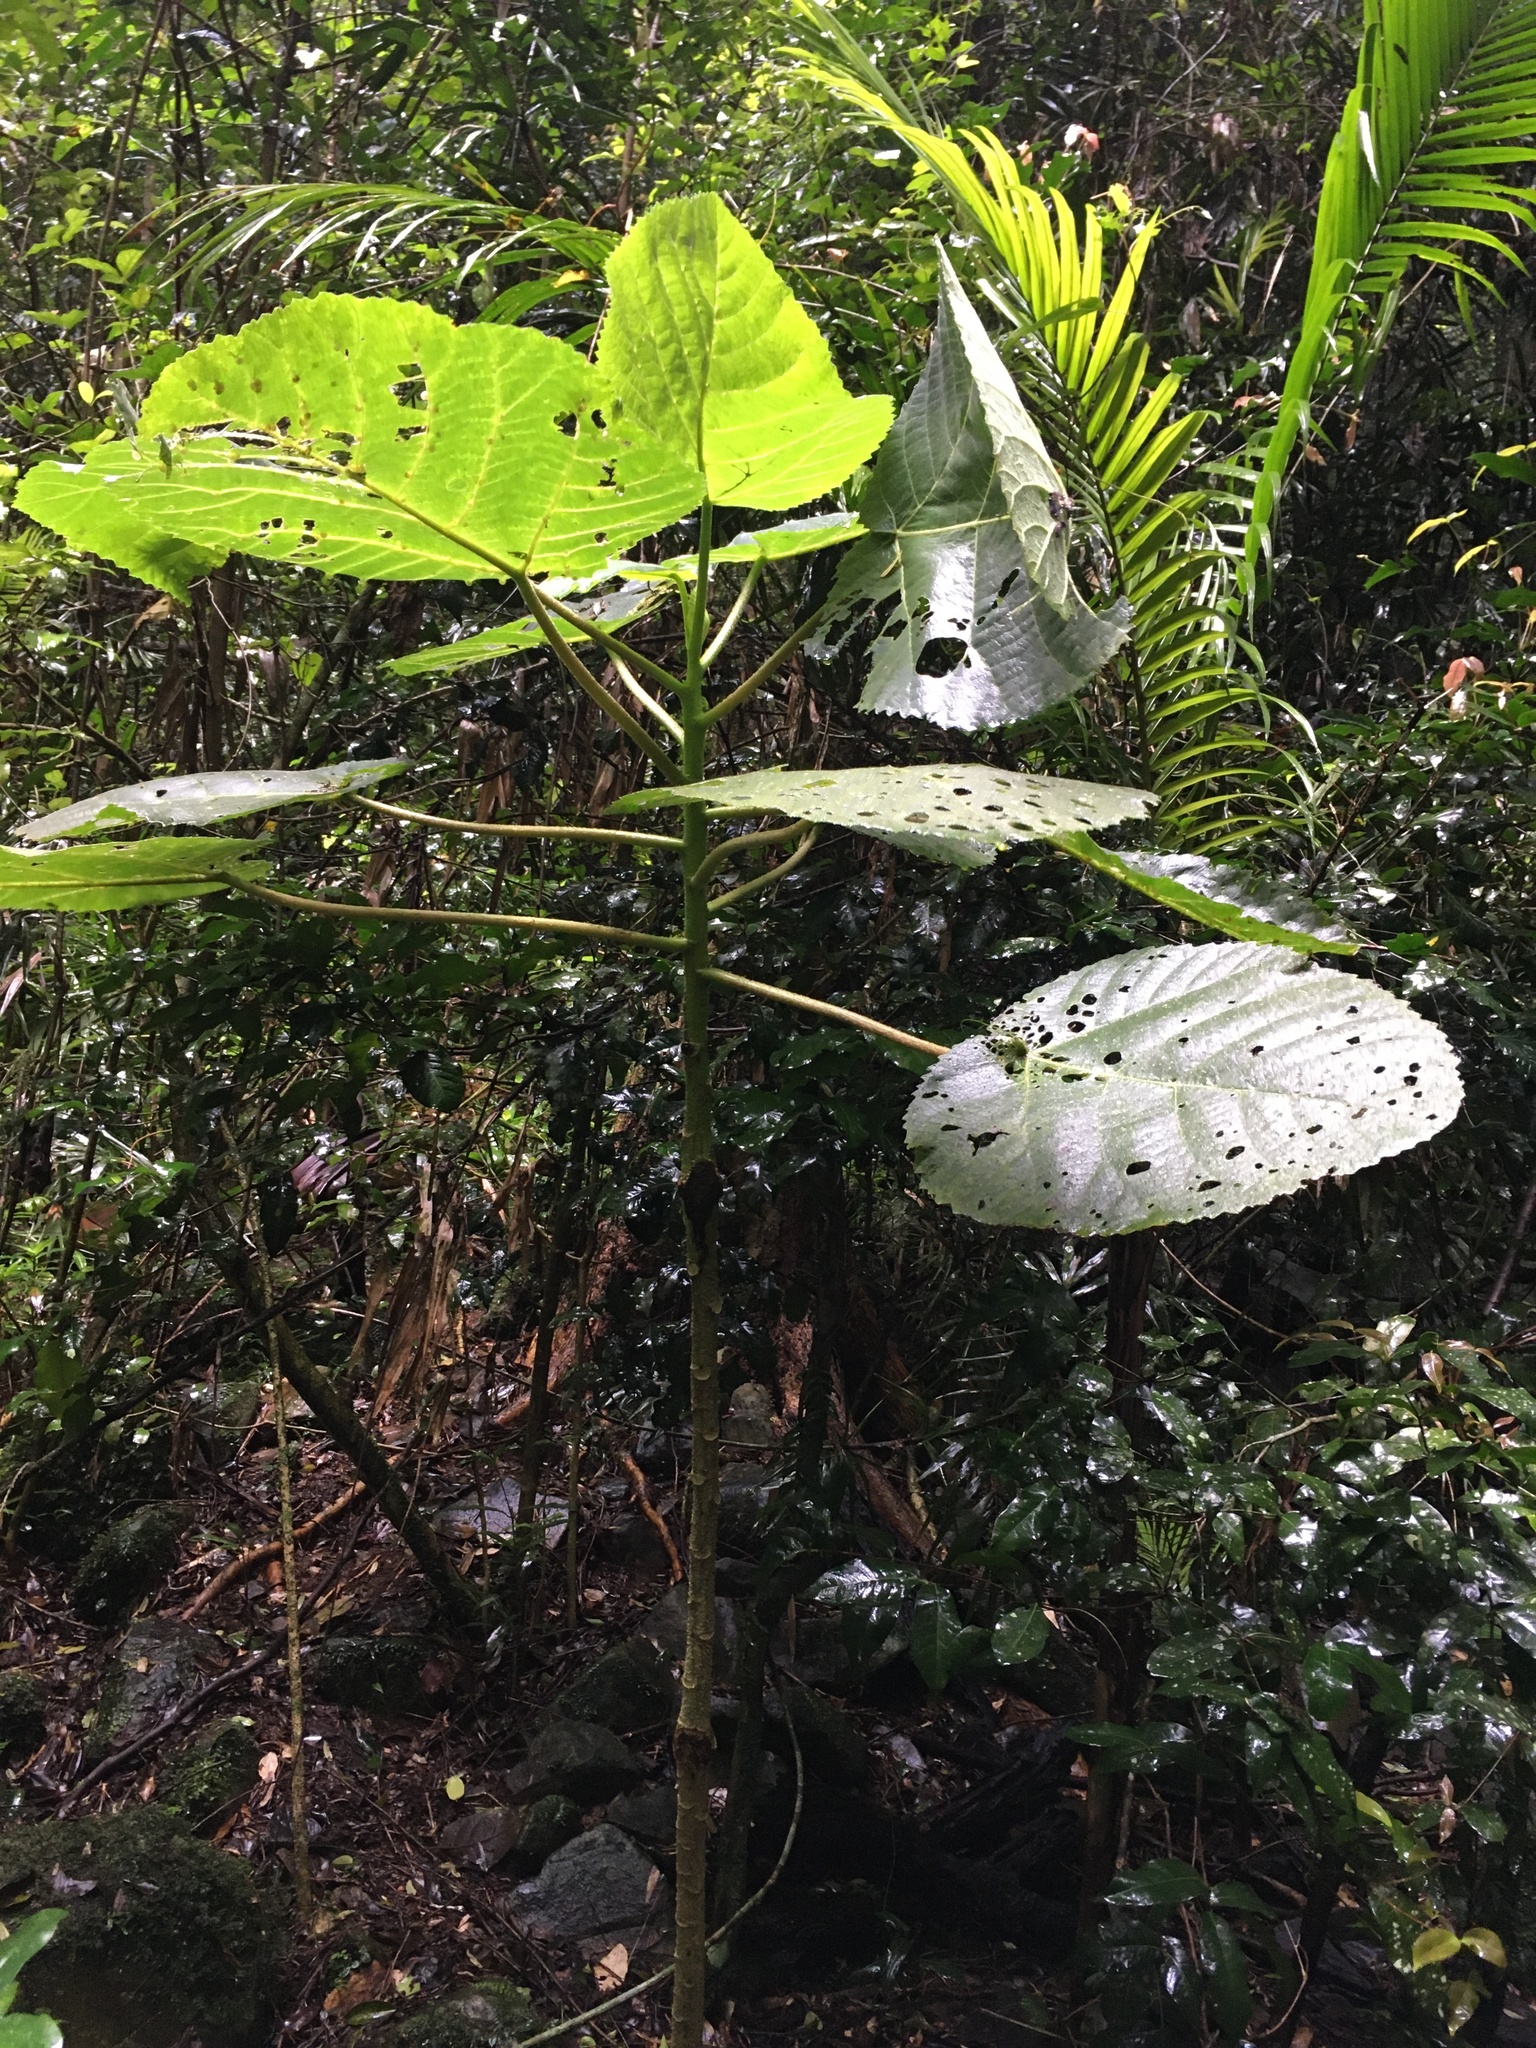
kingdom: Plantae
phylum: Tracheophyta
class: Magnoliopsida
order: Rosales
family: Urticaceae
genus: Dendrocnide
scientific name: Dendrocnide excelsa
